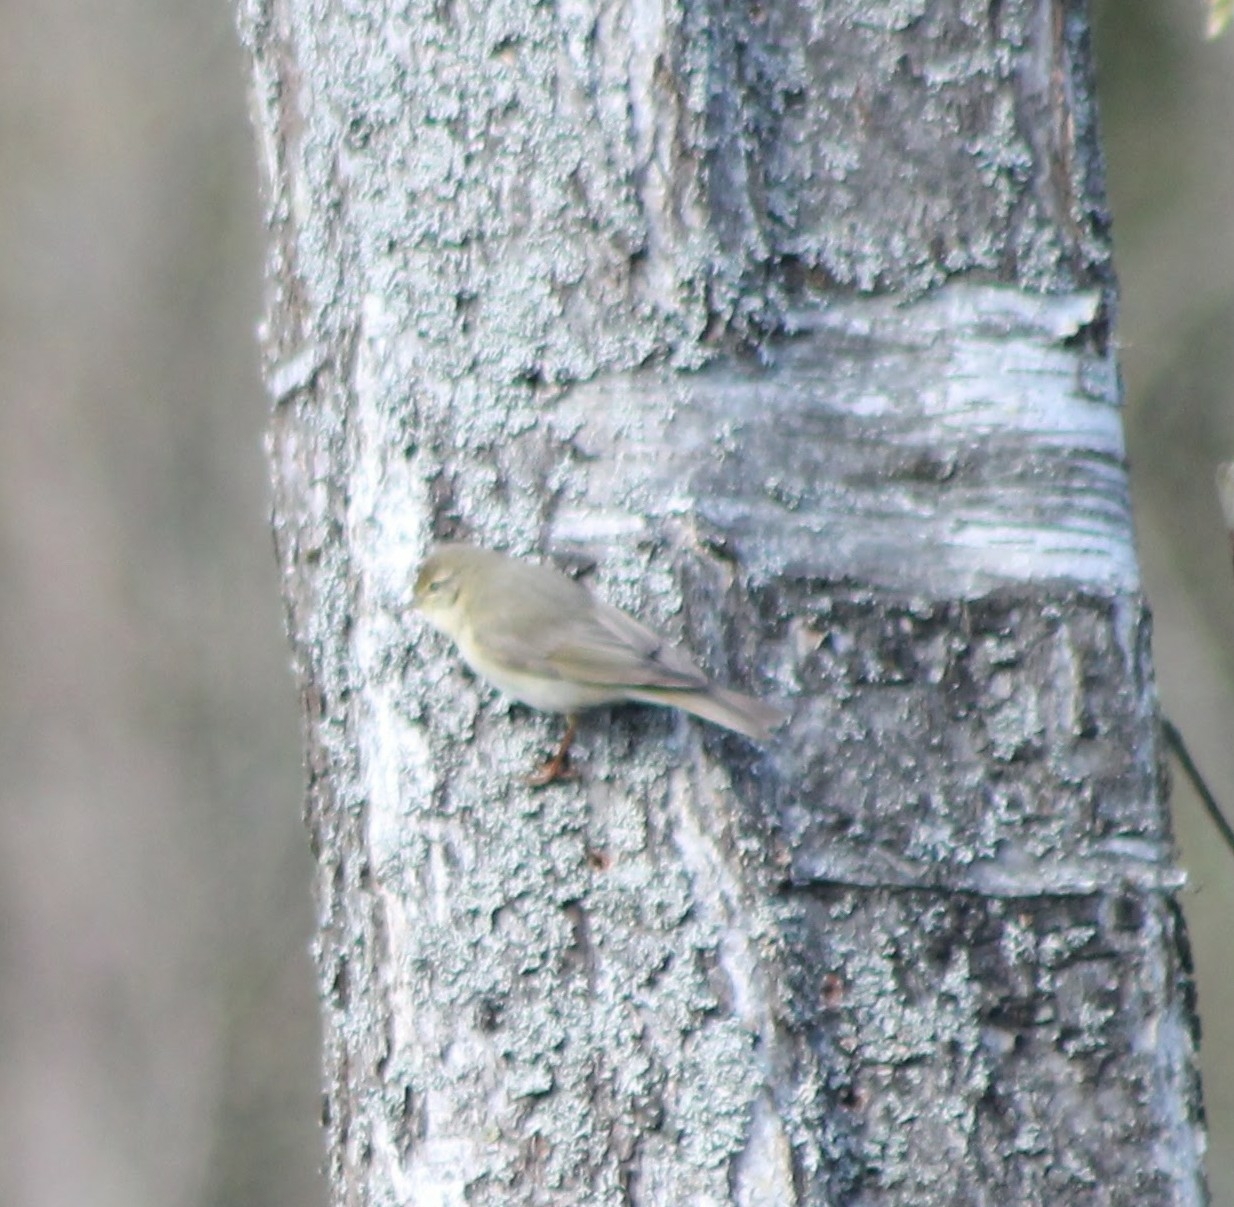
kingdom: Animalia
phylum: Chordata
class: Aves
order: Passeriformes
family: Phylloscopidae
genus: Phylloscopus
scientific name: Phylloscopus trochilus
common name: Willow warbler
